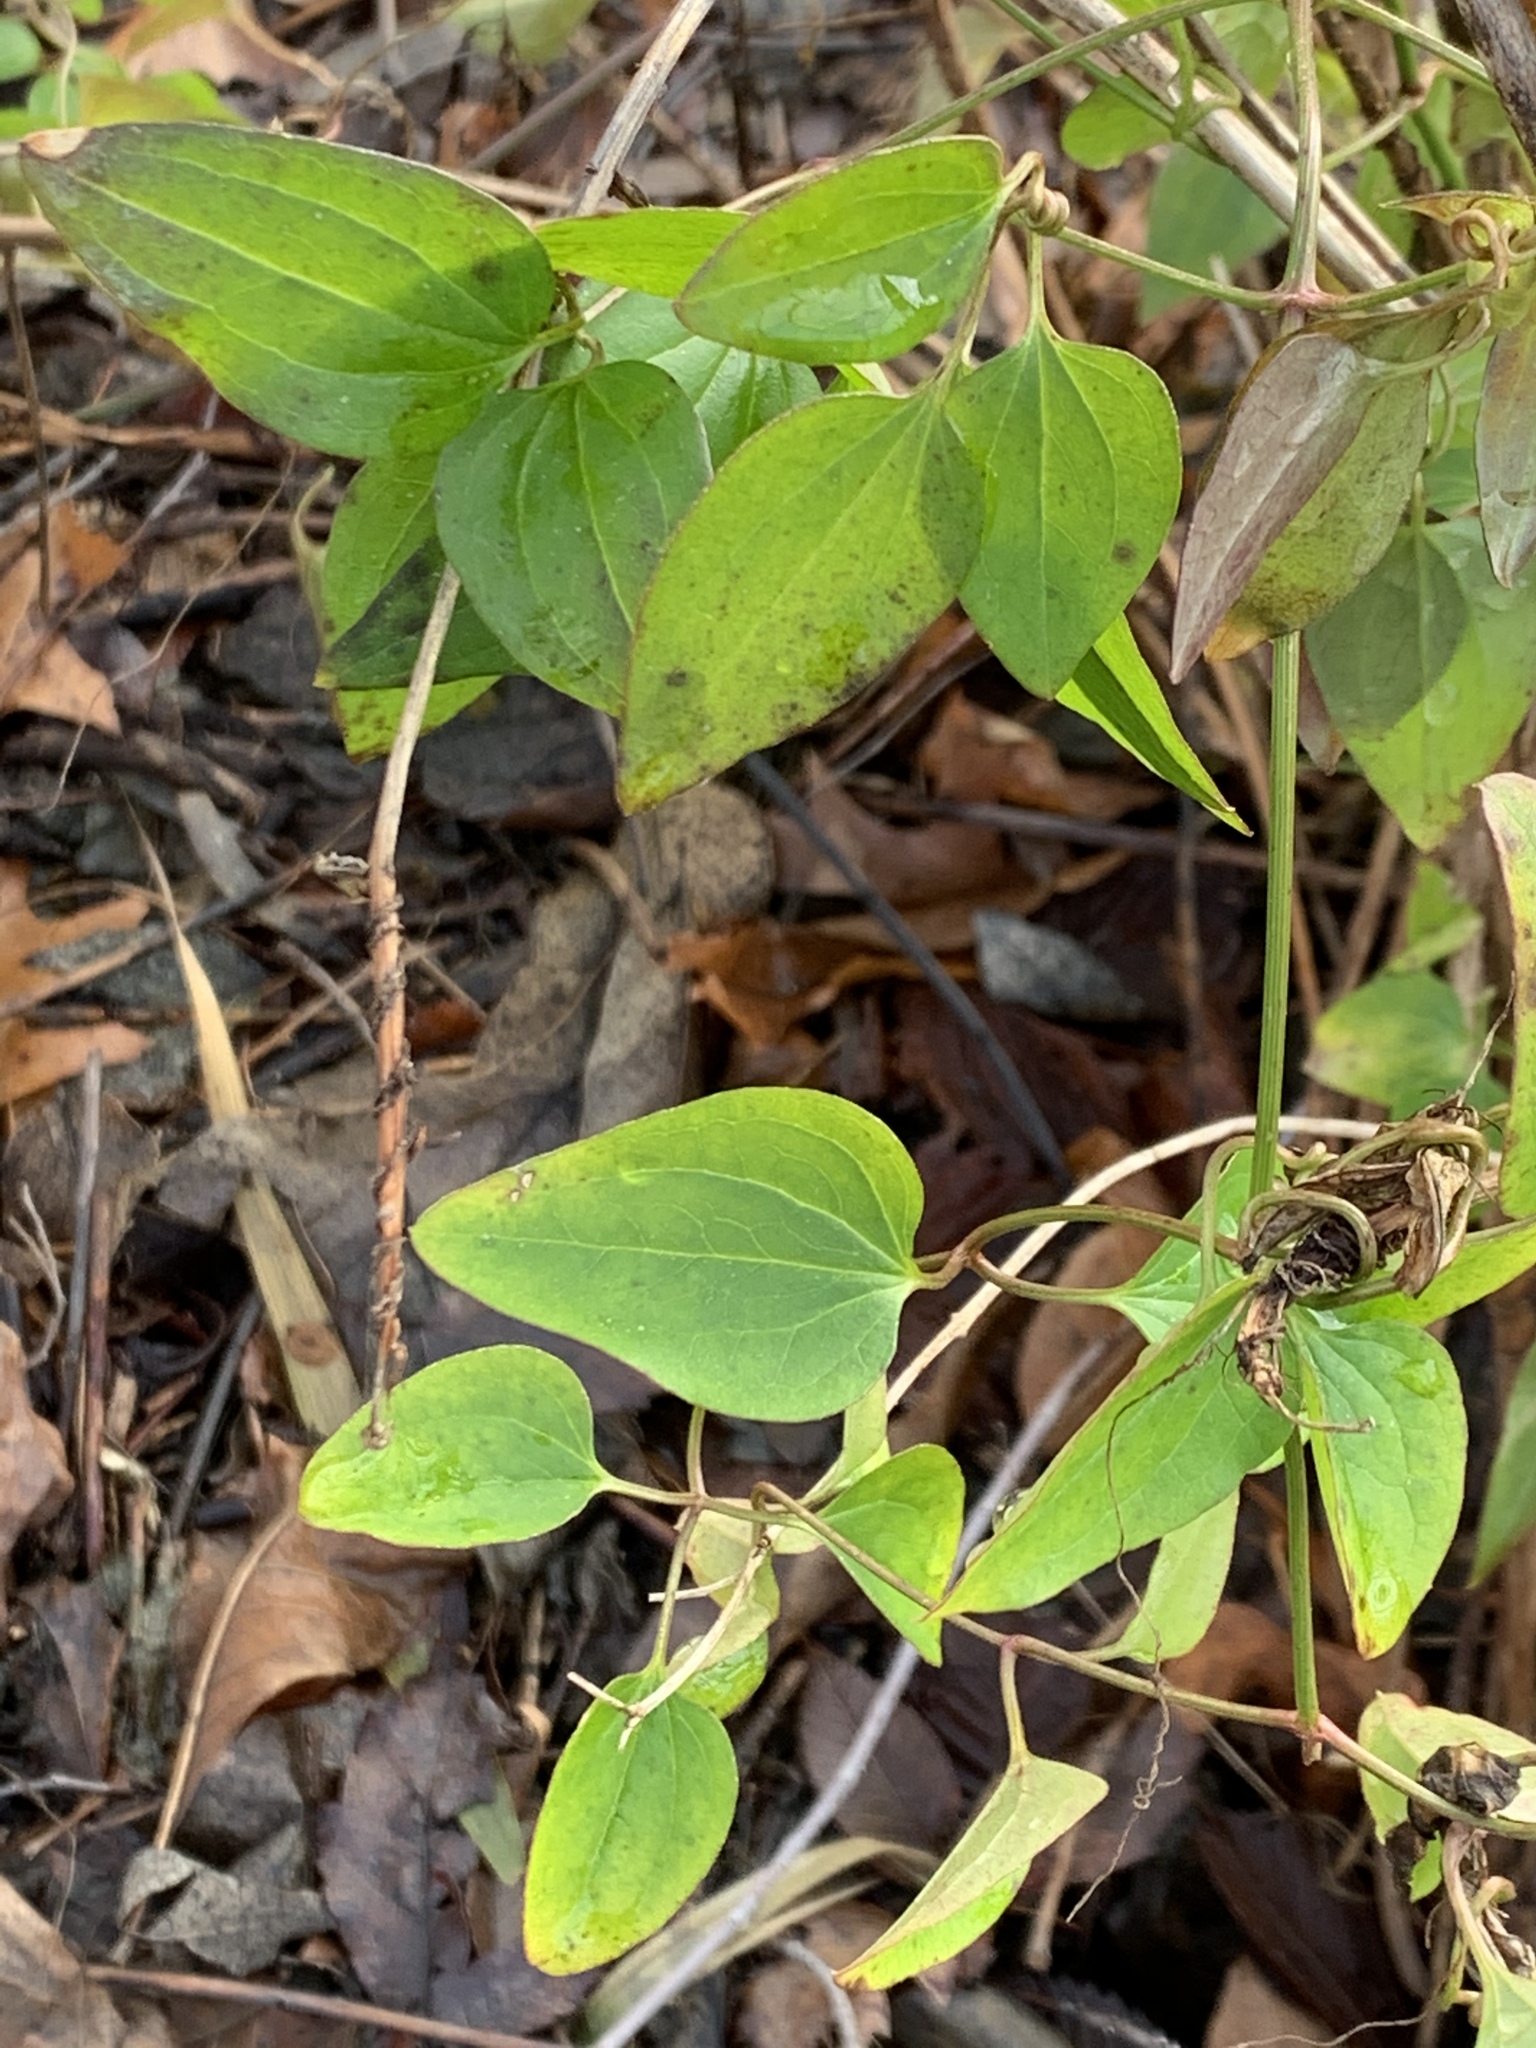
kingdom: Plantae
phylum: Tracheophyta
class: Magnoliopsida
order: Ranunculales
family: Ranunculaceae
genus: Clematis
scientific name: Clematis terniflora
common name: Sweet autumn clematis
